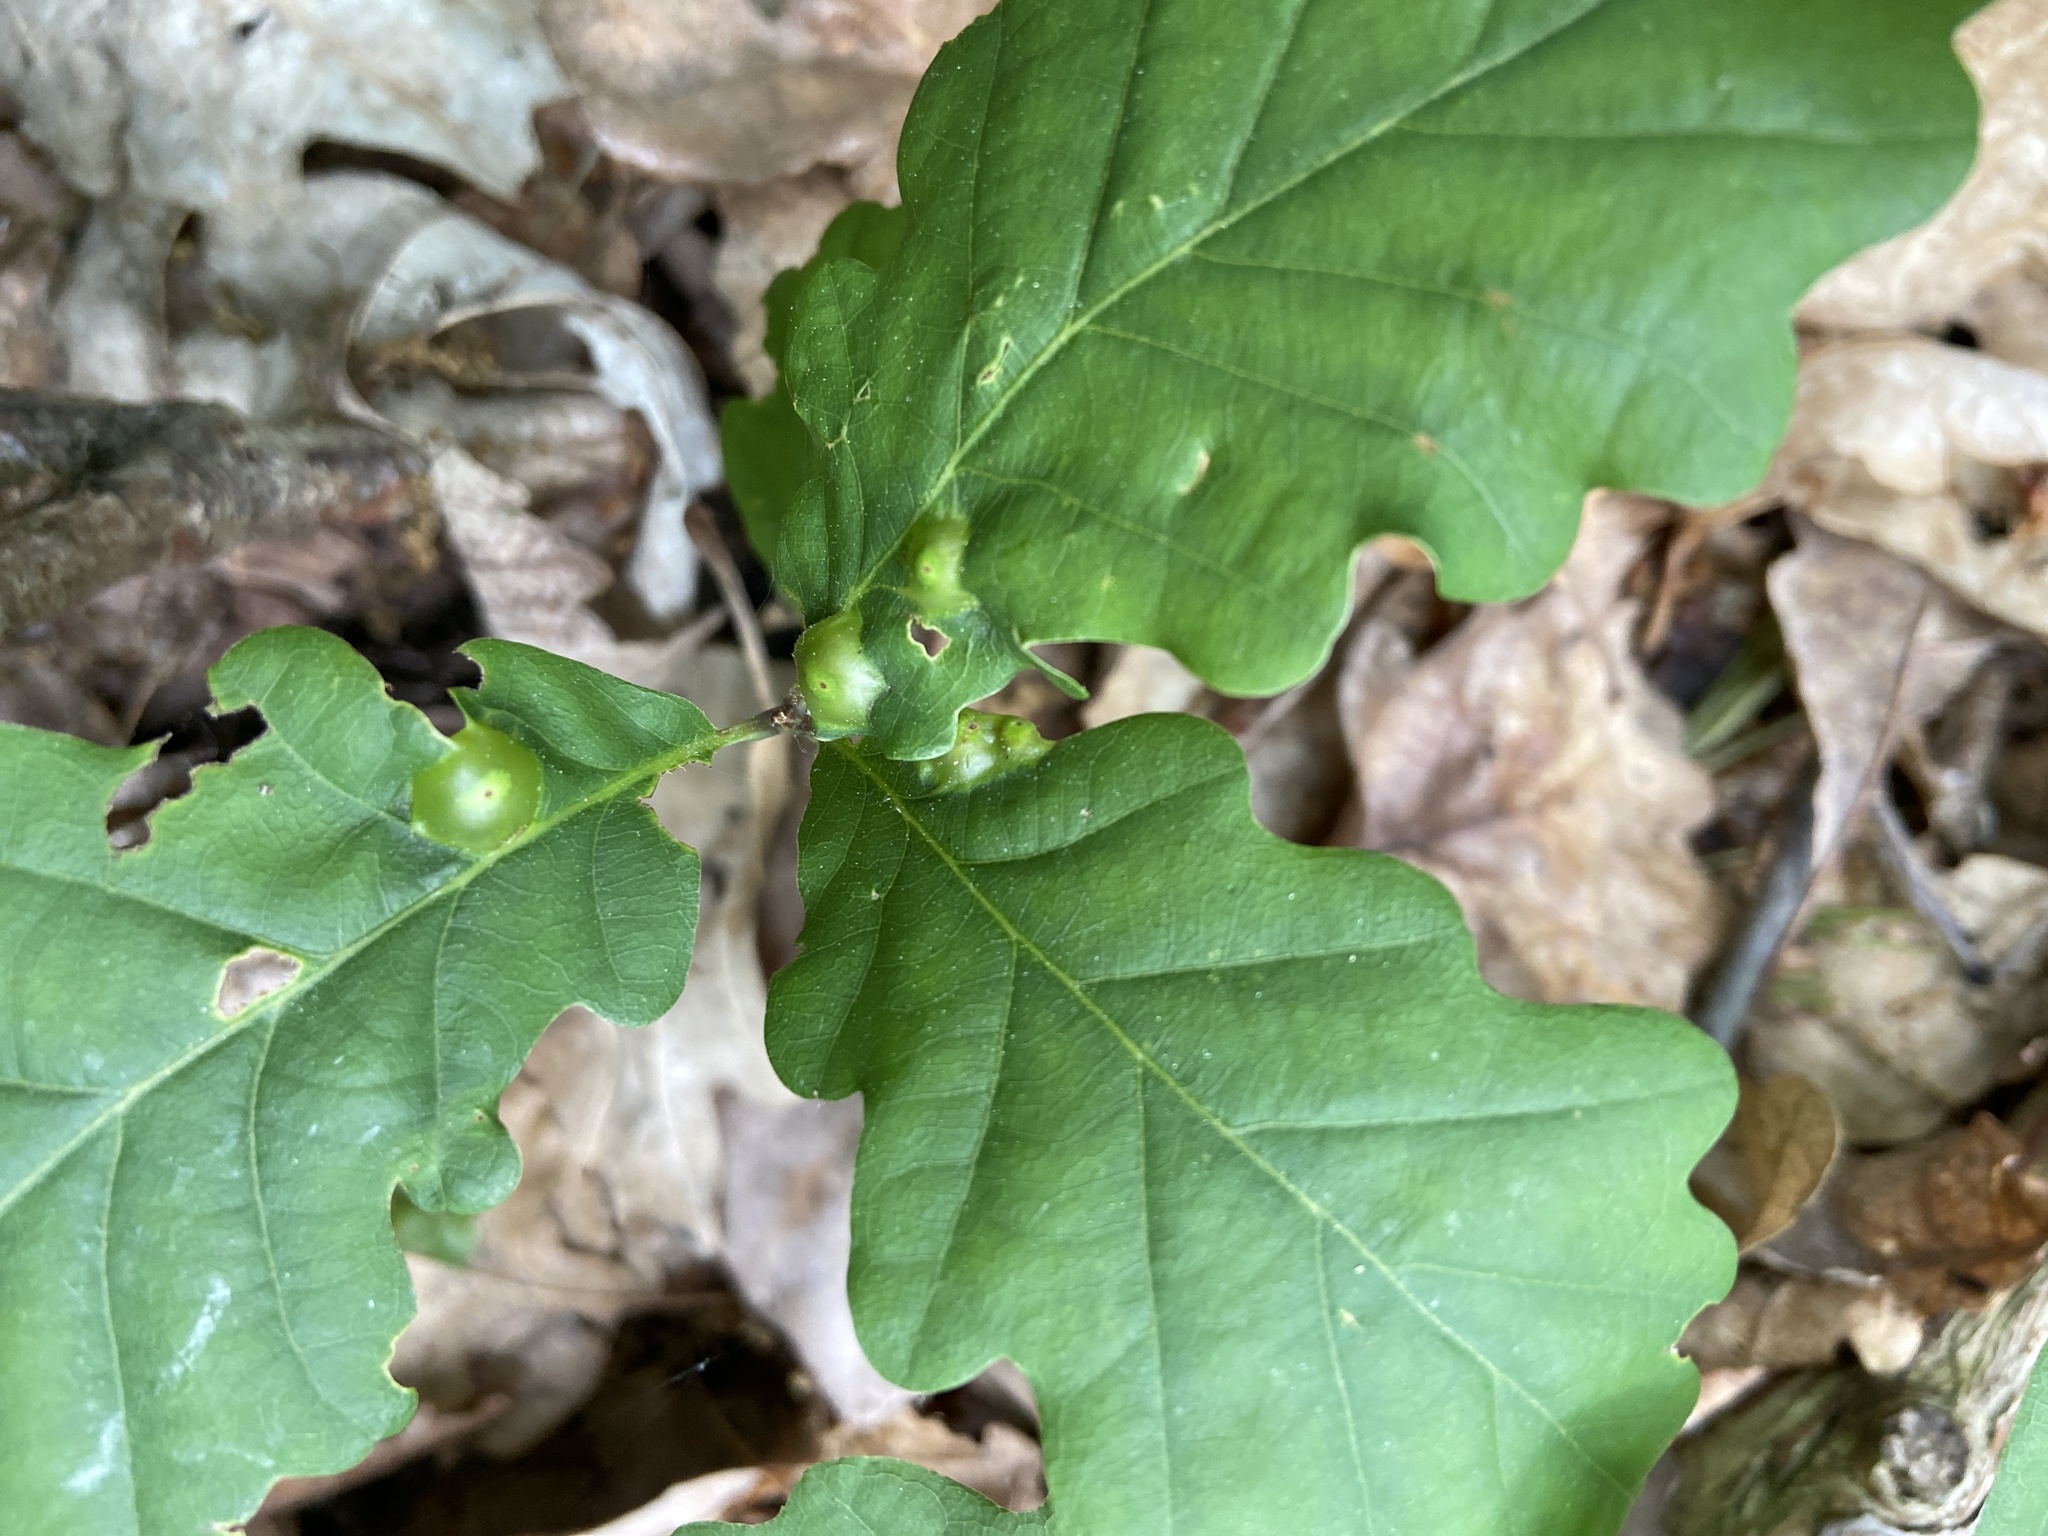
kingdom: Animalia
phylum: Arthropoda
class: Insecta
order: Hymenoptera
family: Cynipidae
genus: Andricus
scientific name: Andricus curvator
